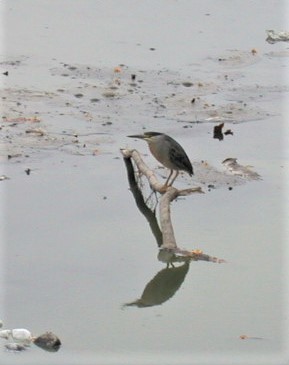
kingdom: Animalia
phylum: Chordata
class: Aves
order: Pelecaniformes
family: Ardeidae
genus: Butorides
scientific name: Butorides striata
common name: Striated heron
